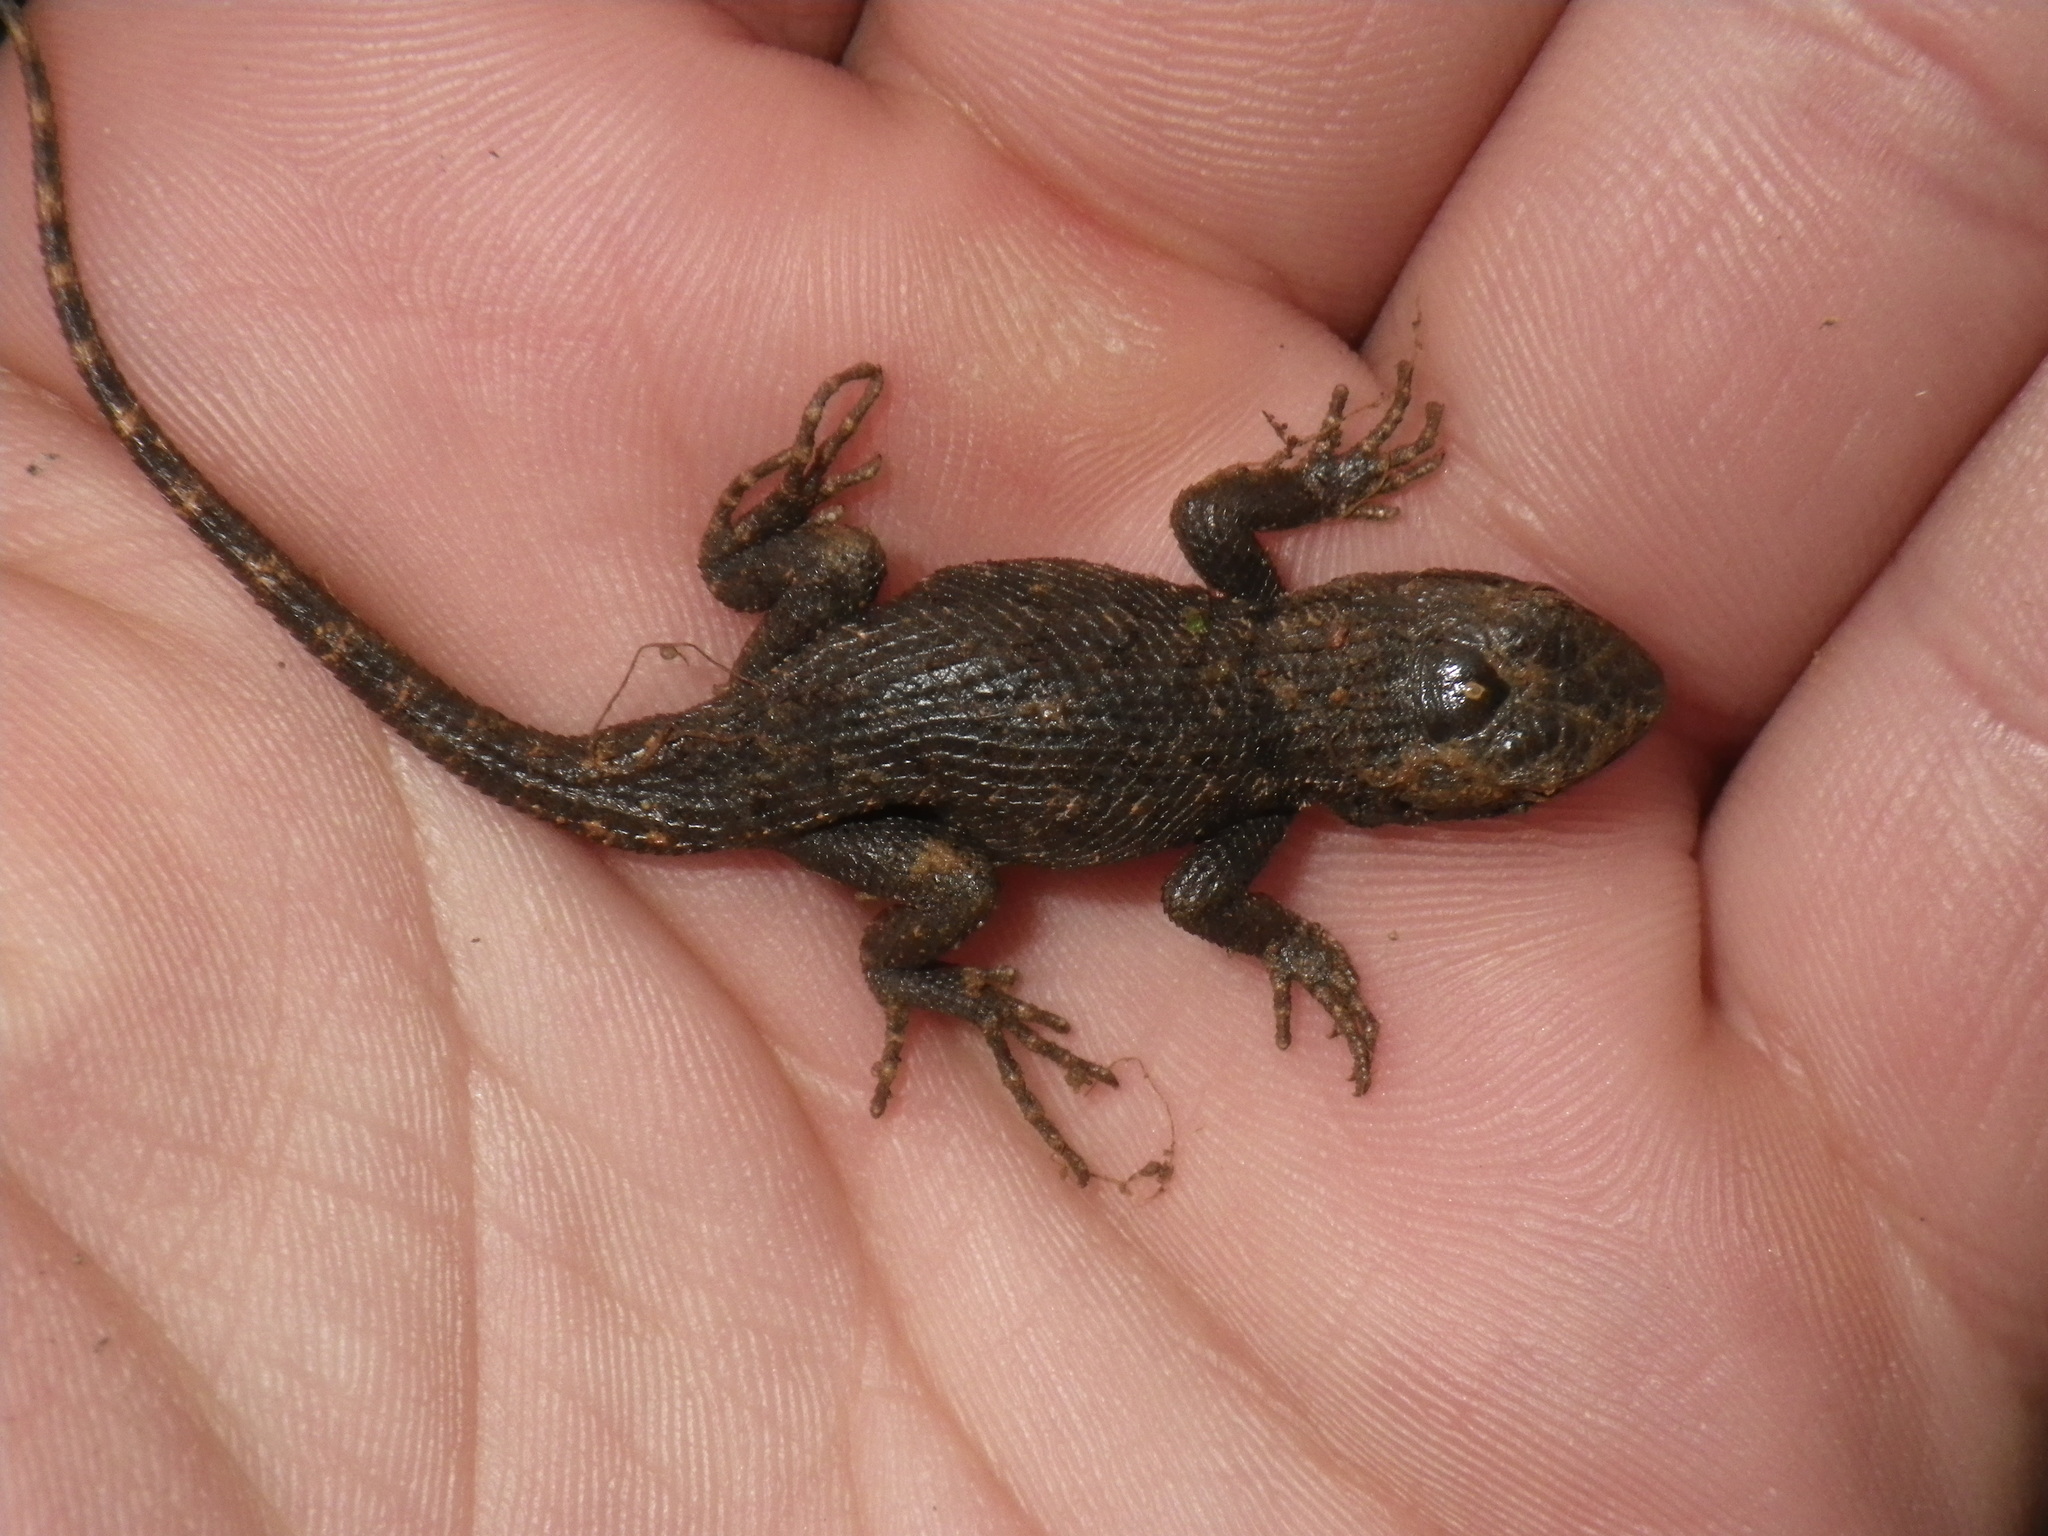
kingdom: Animalia
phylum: Chordata
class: Squamata
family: Phrynosomatidae
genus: Sceloporus
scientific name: Sceloporus occidentalis
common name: Western fence lizard
